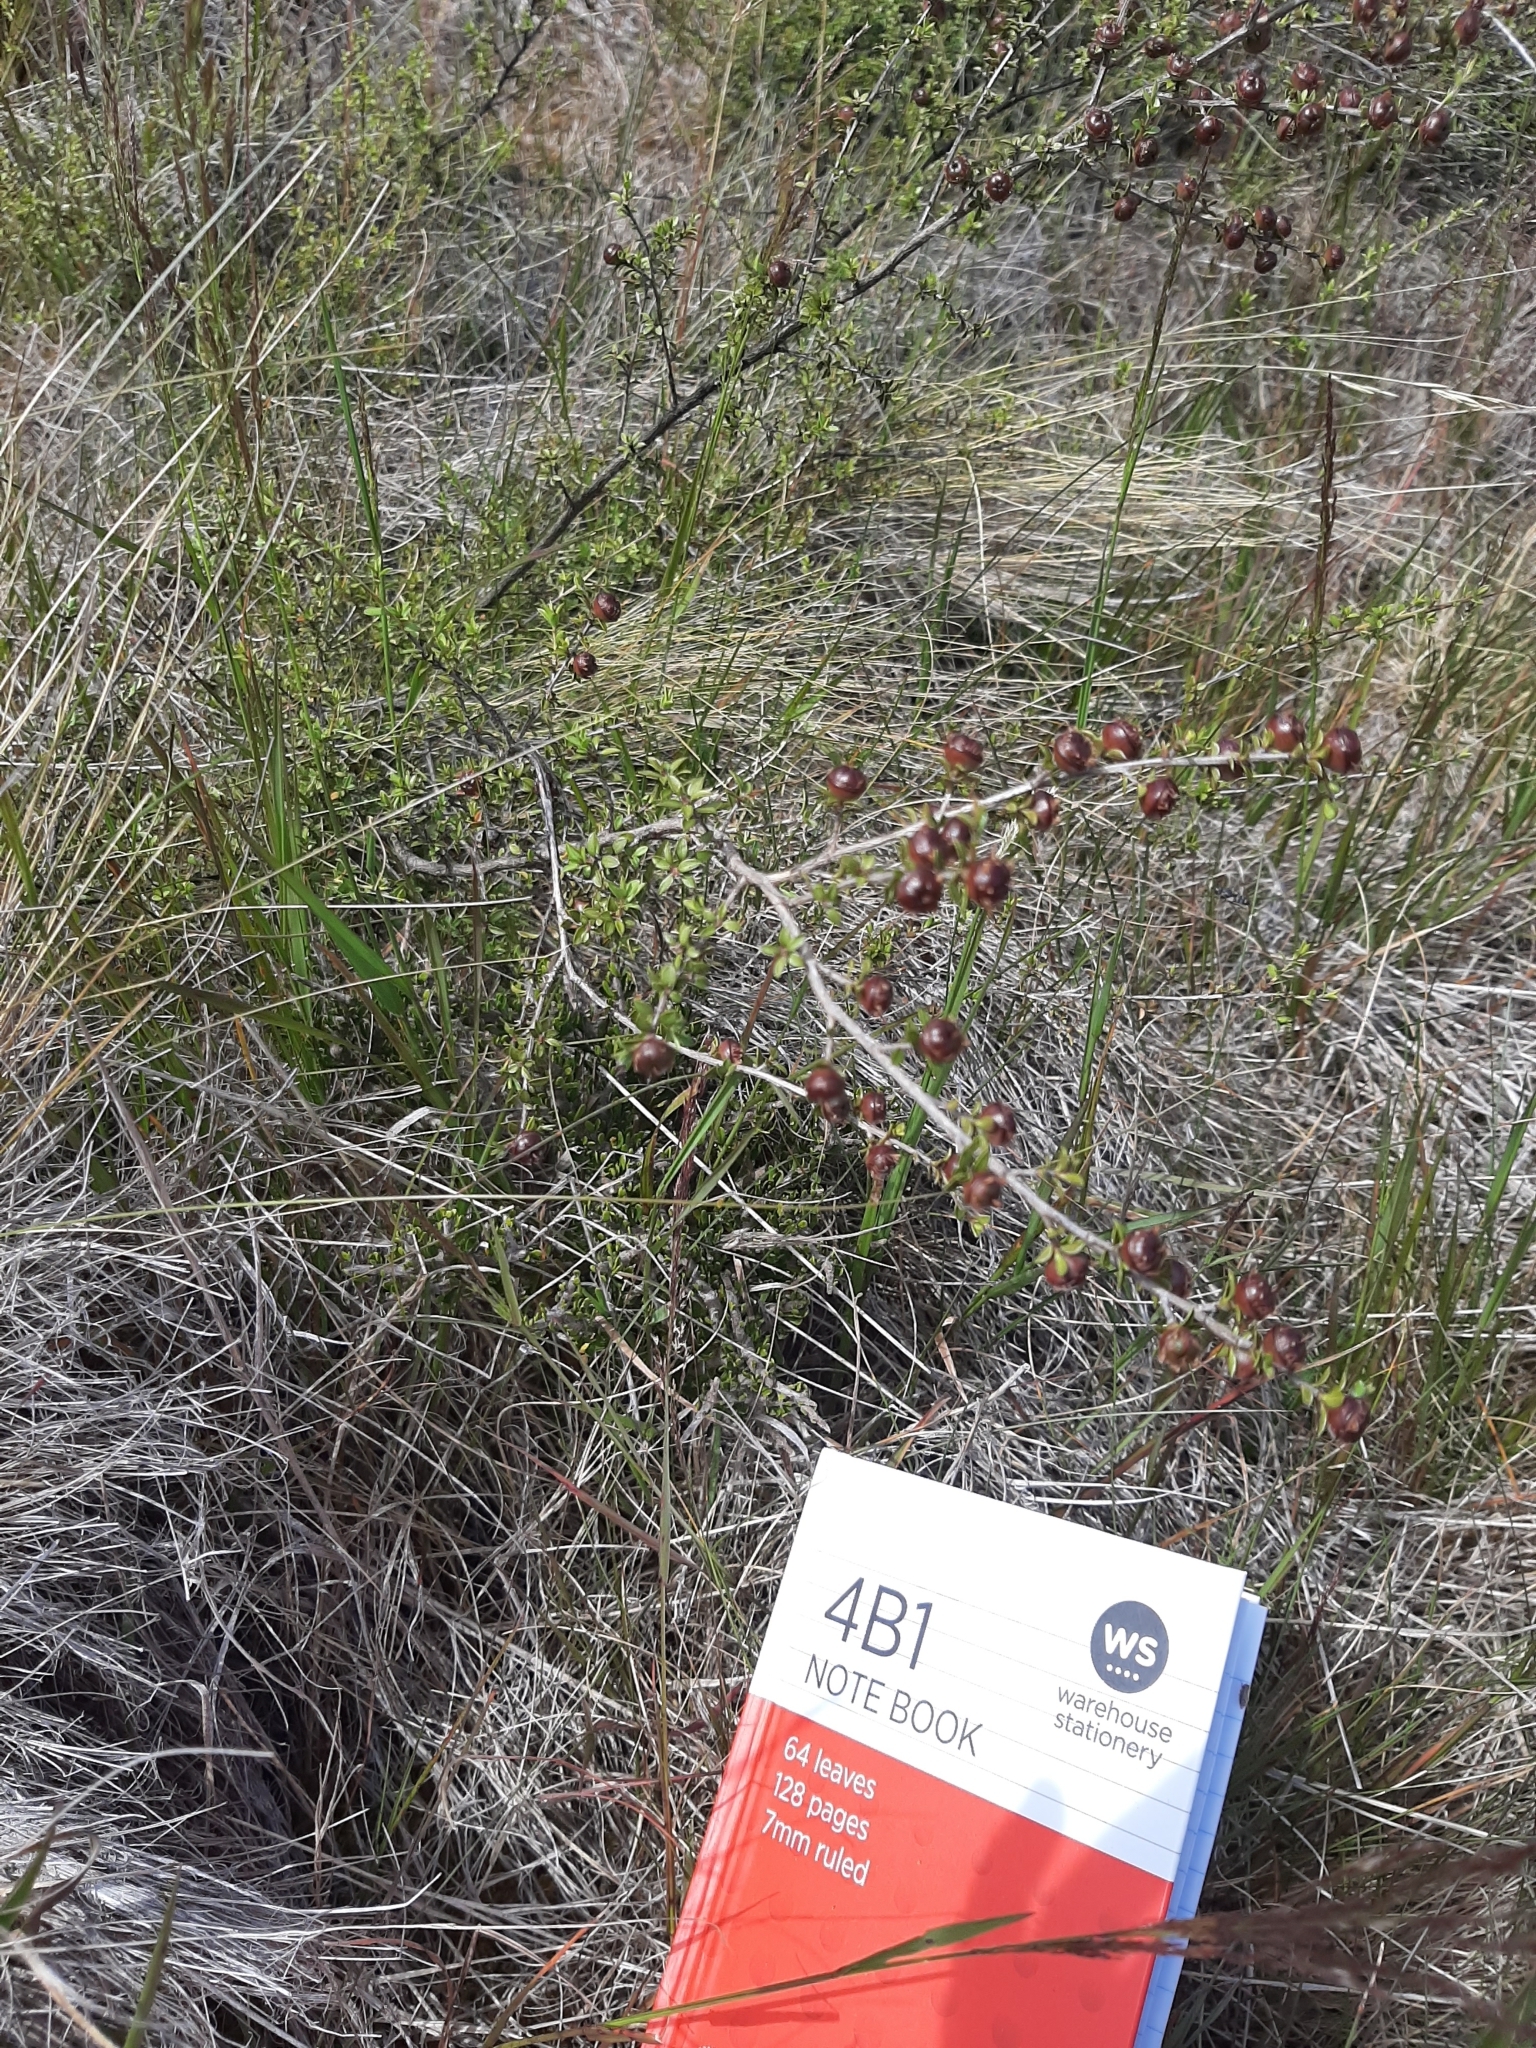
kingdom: Plantae
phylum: Tracheophyta
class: Magnoliopsida
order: Myrtales
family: Myrtaceae
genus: Leptospermum
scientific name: Leptospermum scoparium
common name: Broom tea-tree
